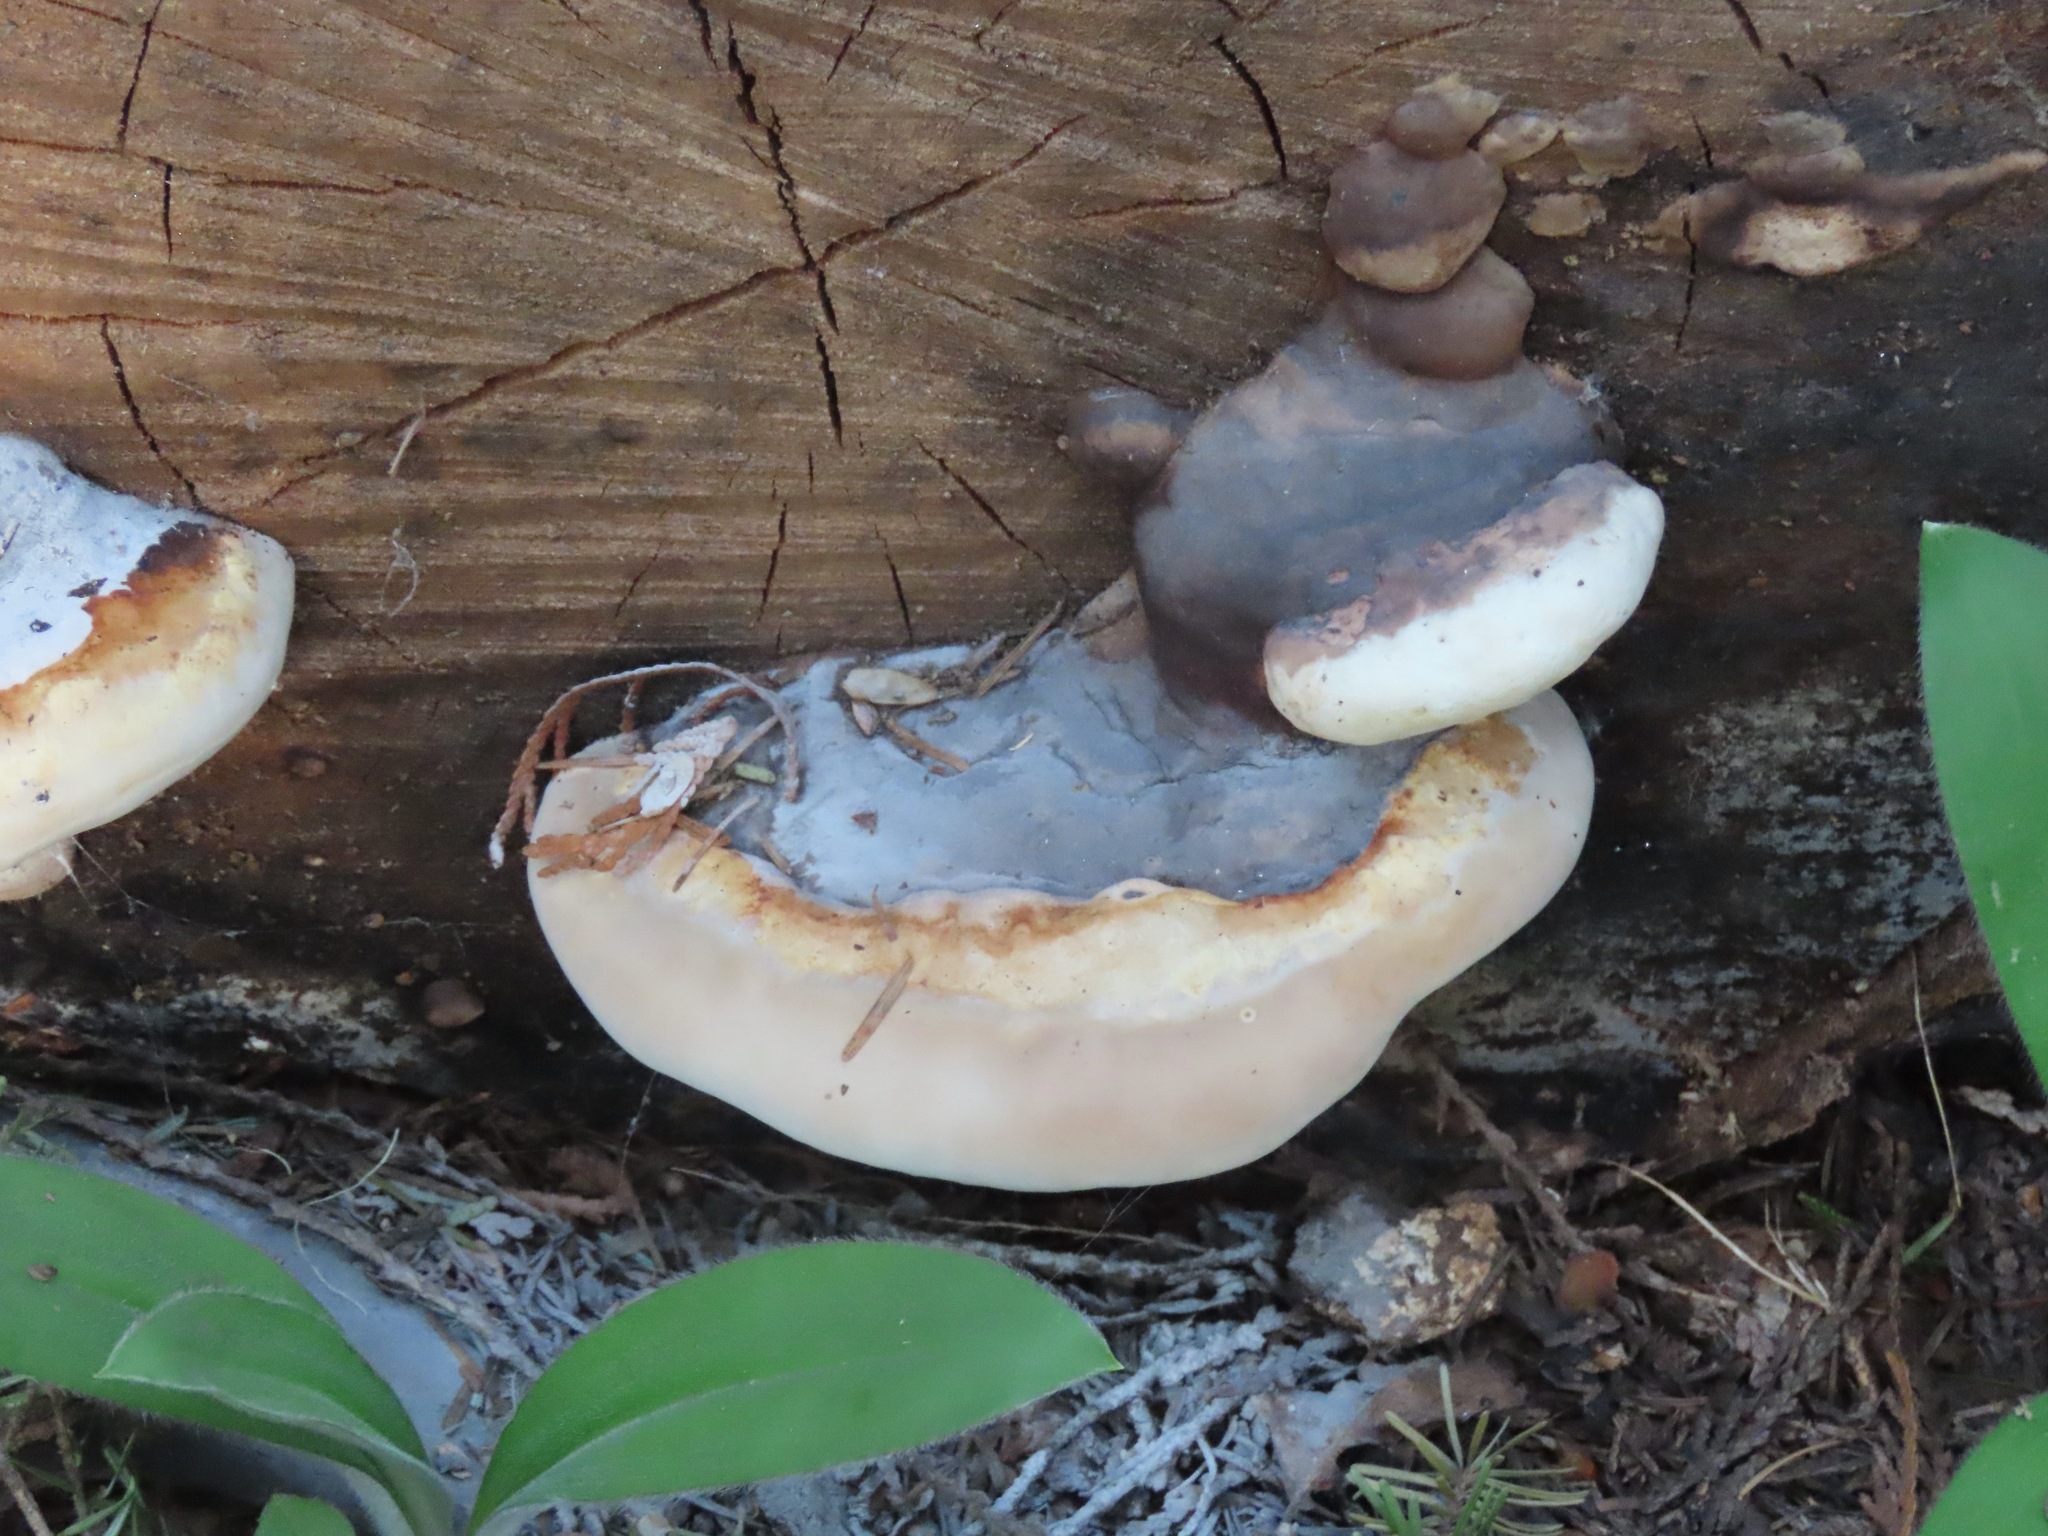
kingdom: Fungi
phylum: Basidiomycota
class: Agaricomycetes
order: Polyporales
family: Fomitopsidaceae
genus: Fomitopsis
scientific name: Fomitopsis mounceae
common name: Northern red belt
